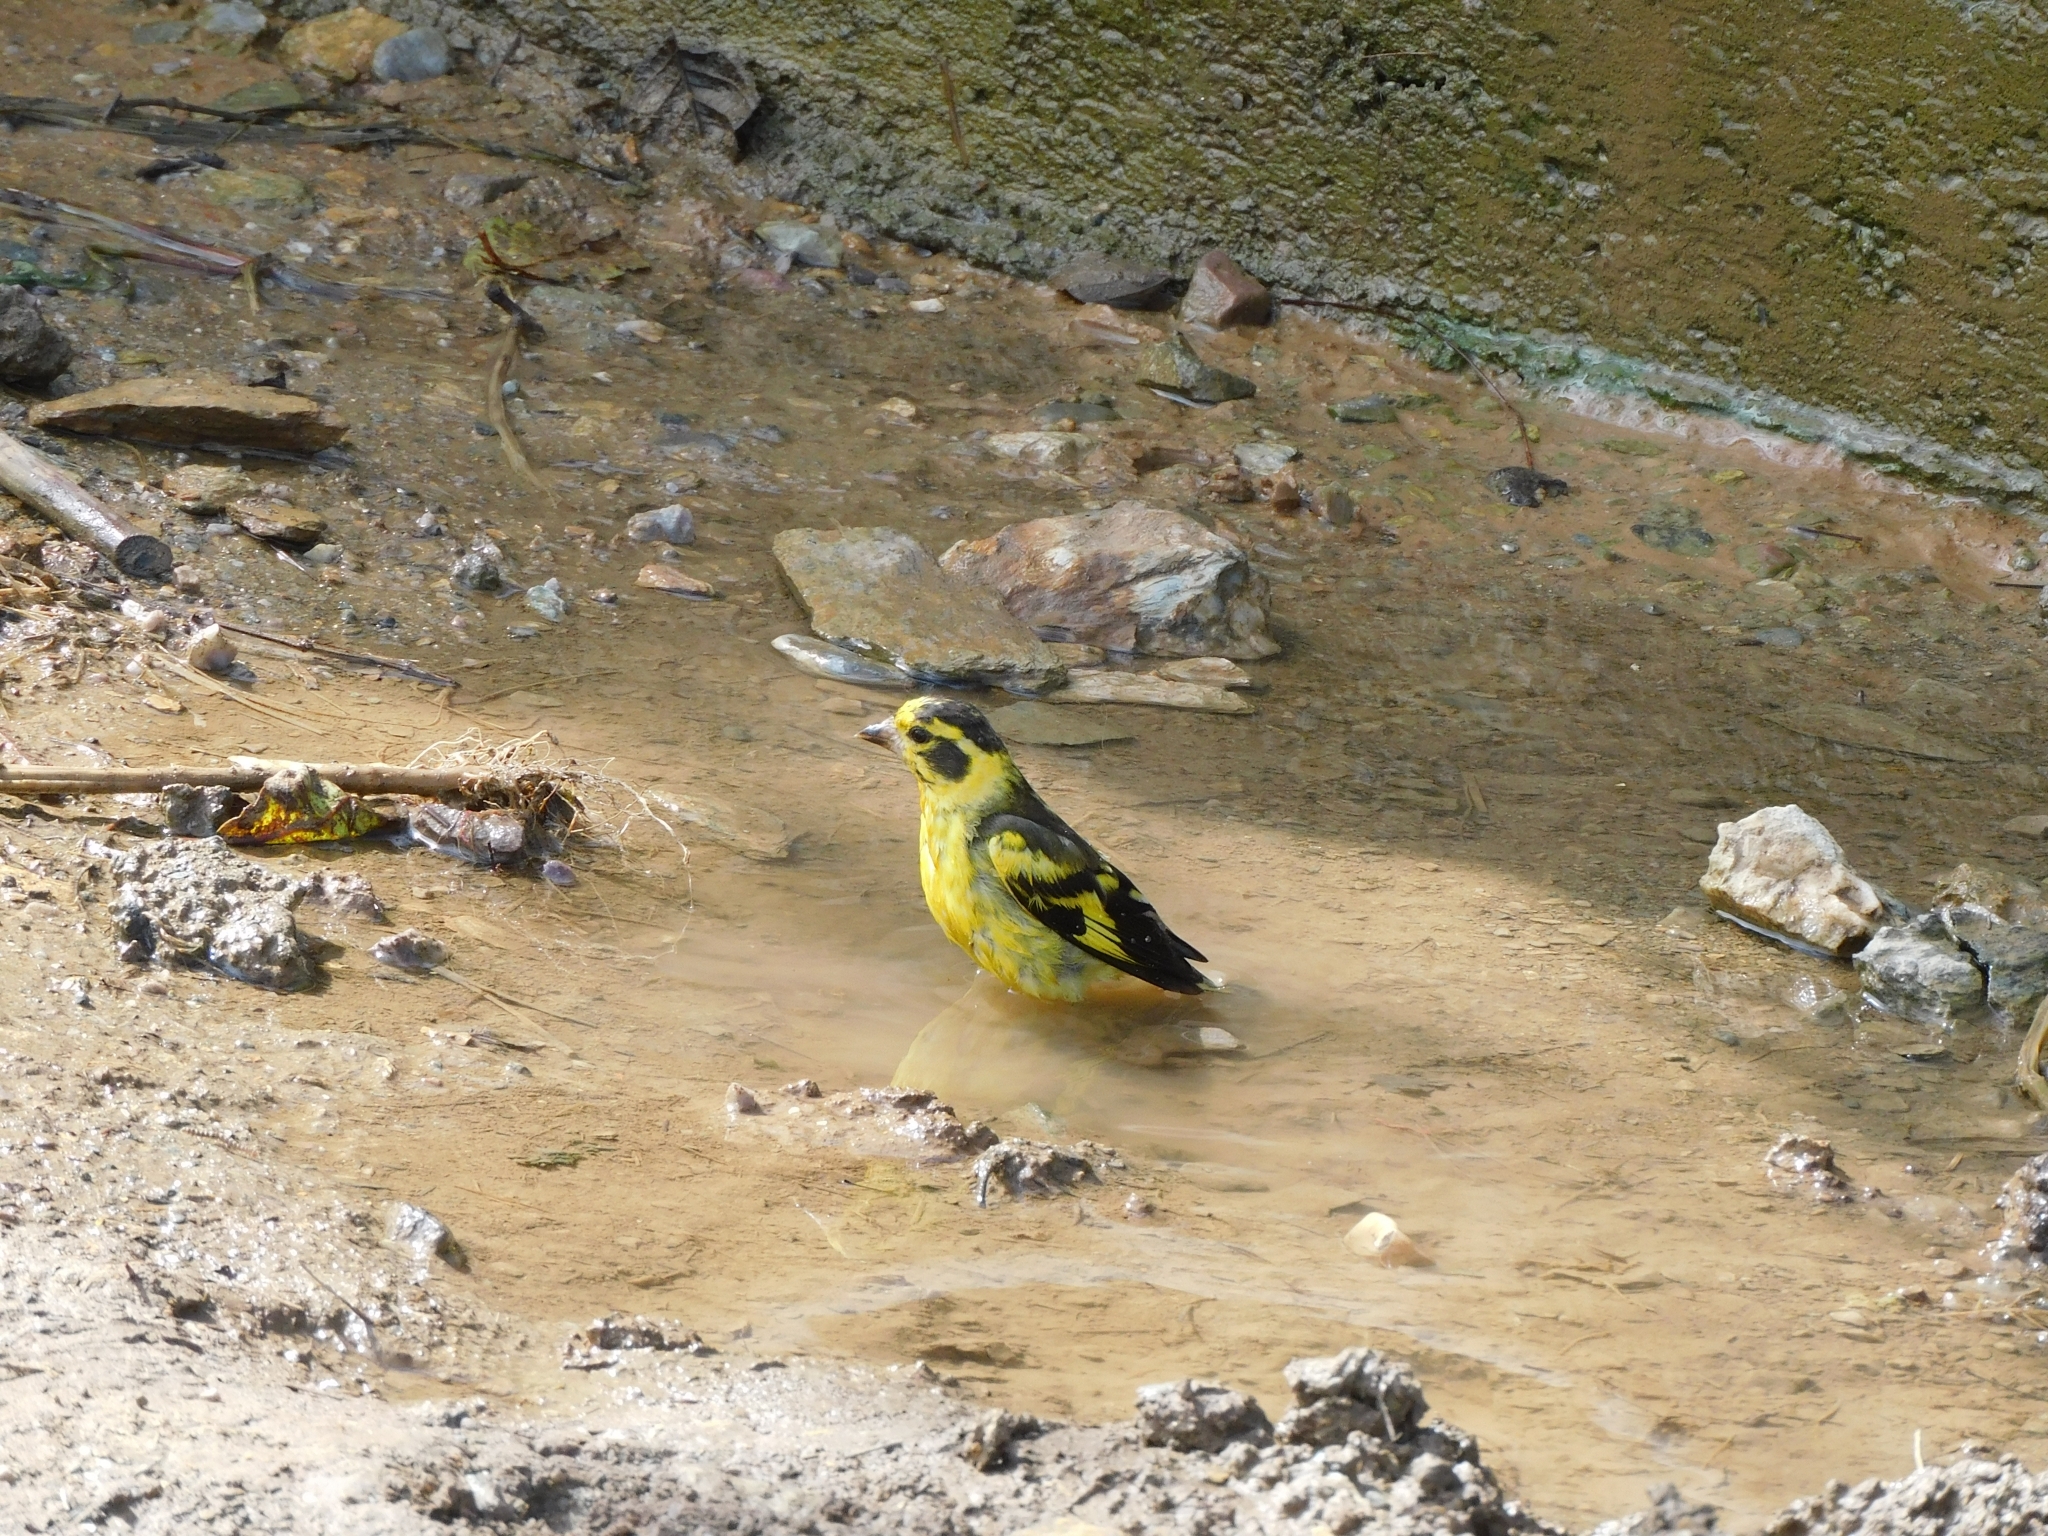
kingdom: Animalia
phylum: Chordata
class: Aves
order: Passeriformes
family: Fringillidae
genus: Chloris
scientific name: Chloris spinoides
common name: Yellow-breasted greenfinch
